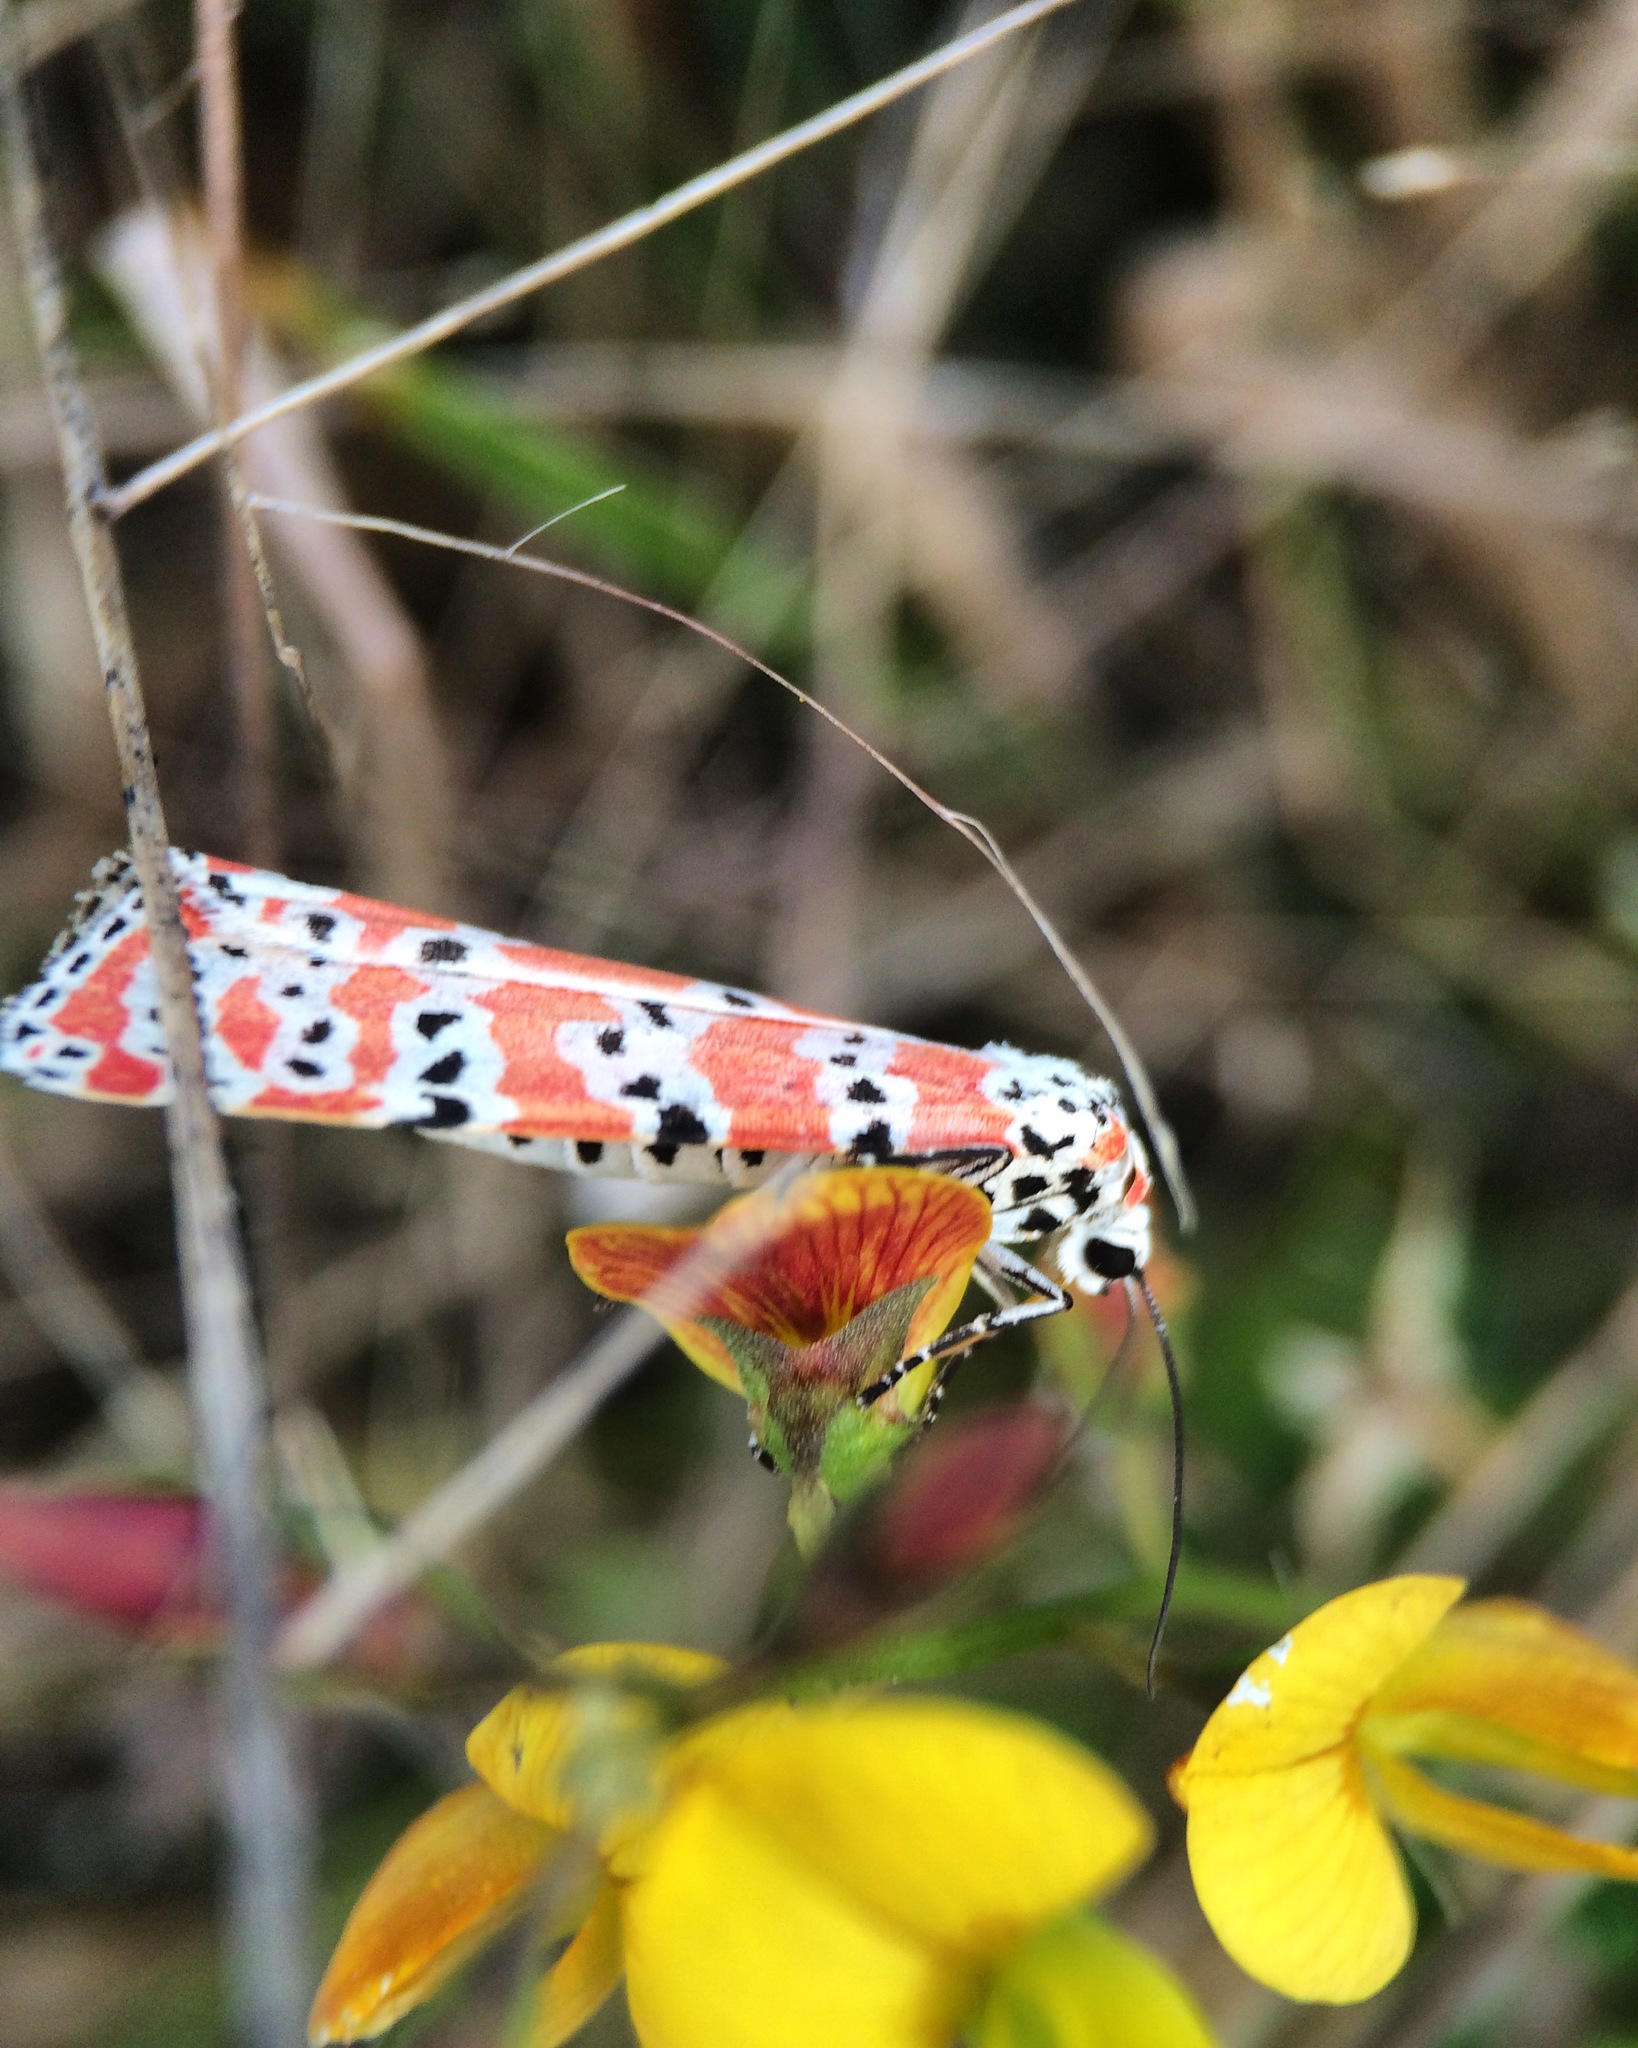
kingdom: Animalia
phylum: Arthropoda
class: Insecta
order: Lepidoptera
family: Erebidae
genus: Utetheisa
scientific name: Utetheisa ornatrix
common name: Beautiful utetheisa
